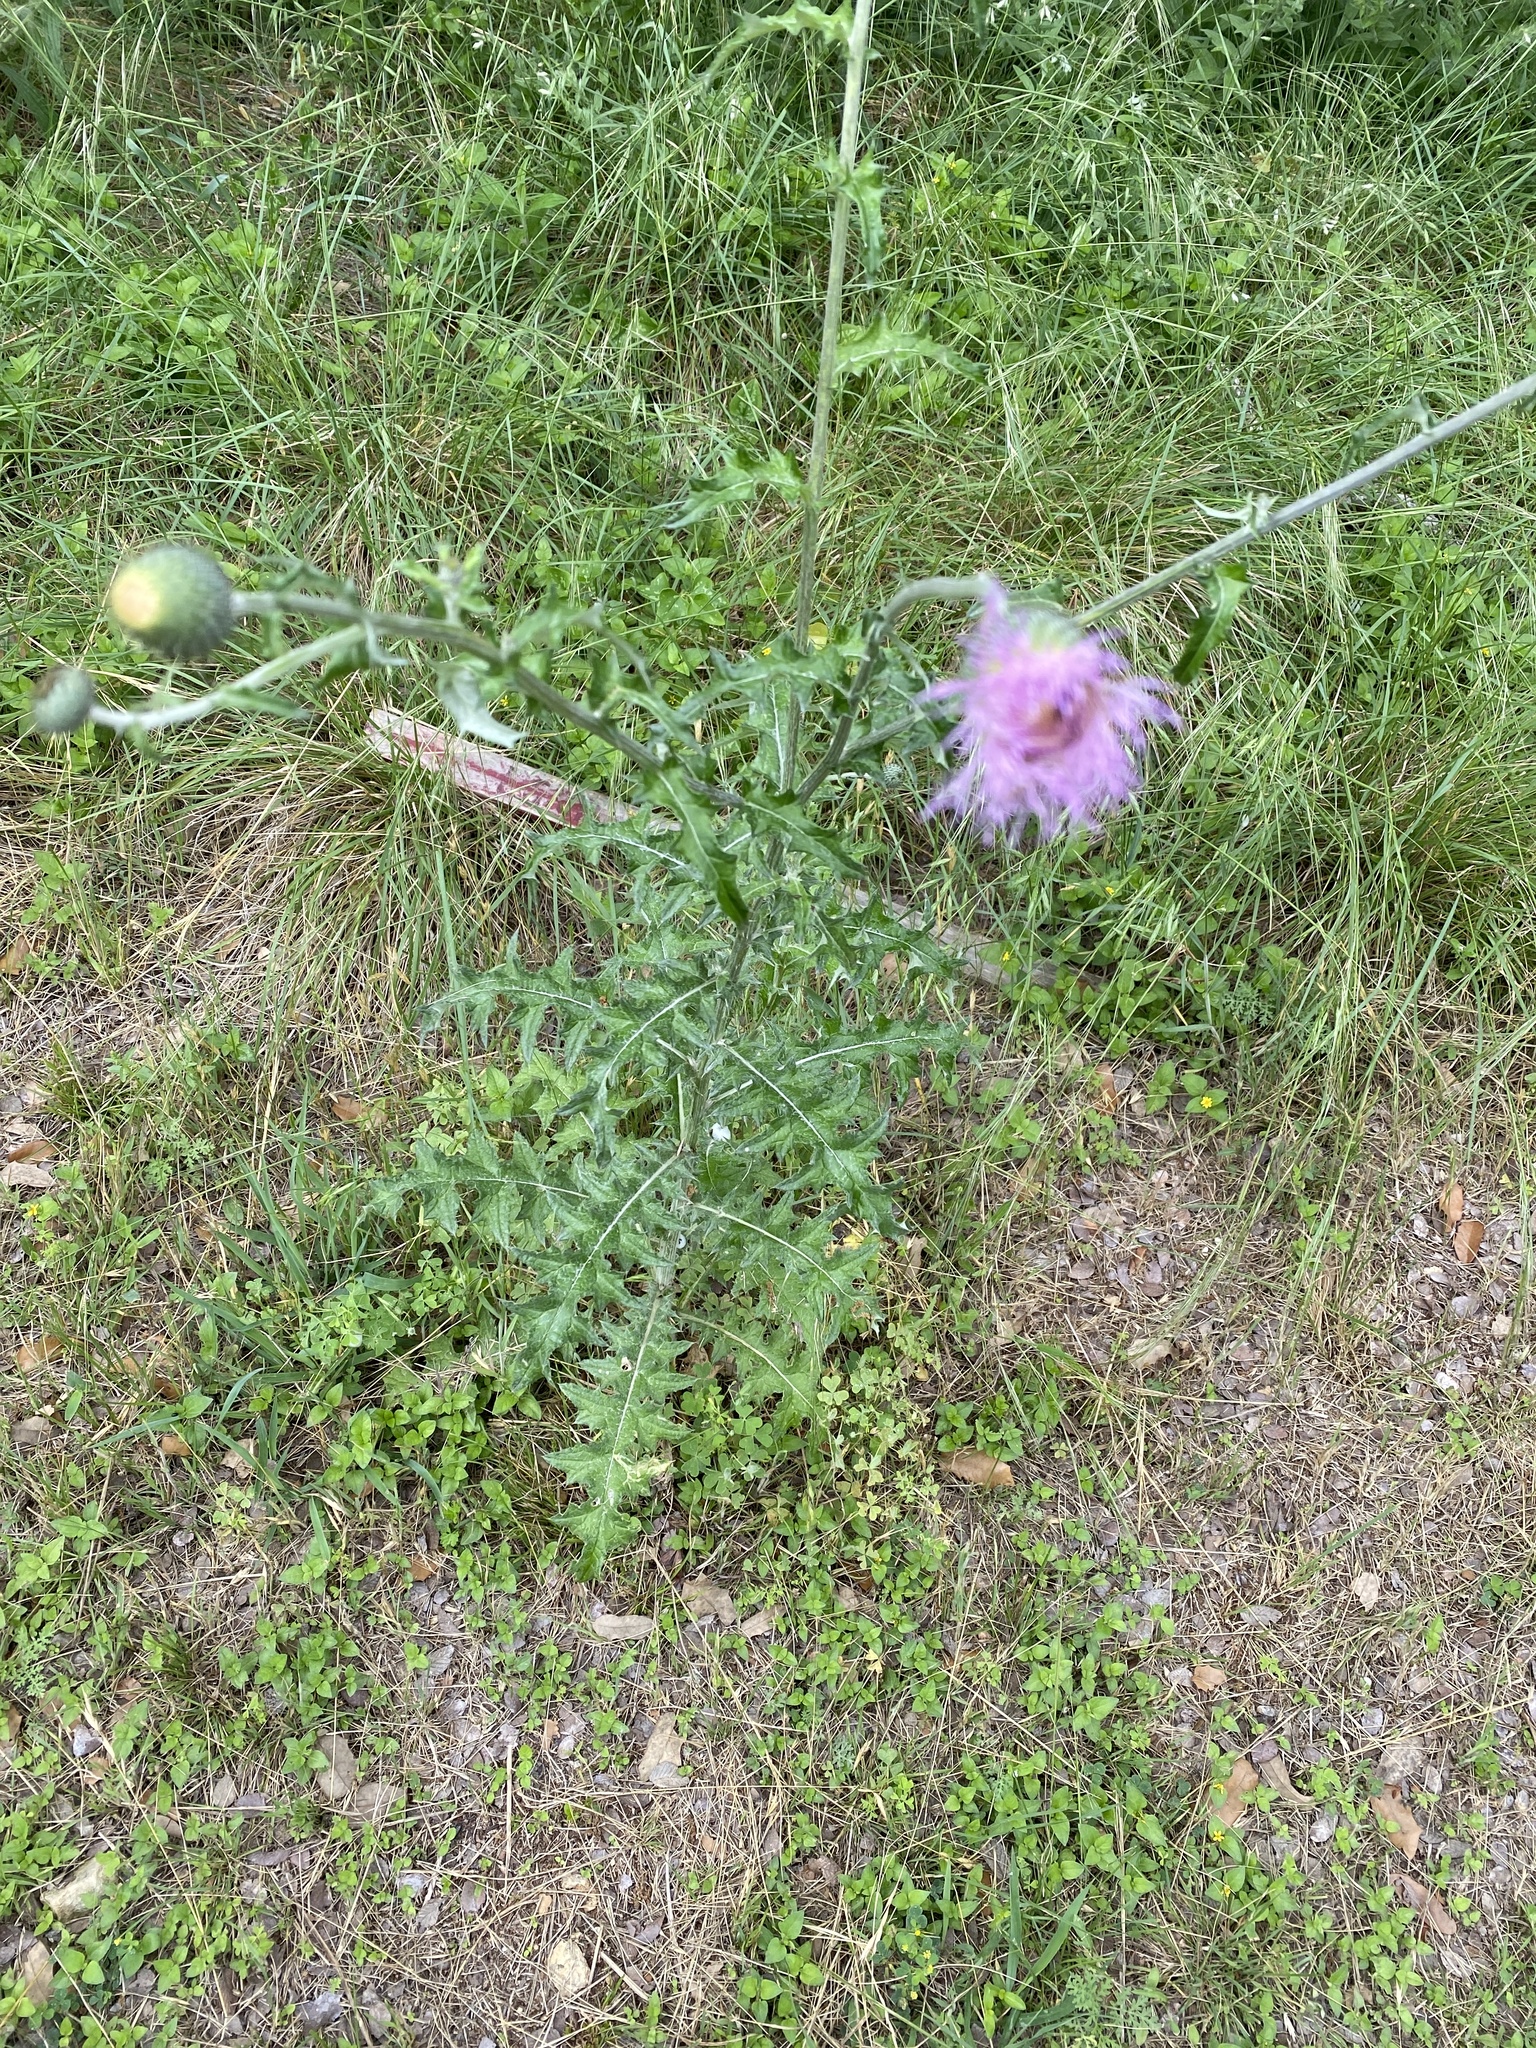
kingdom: Plantae
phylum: Tracheophyta
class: Magnoliopsida
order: Asterales
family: Asteraceae
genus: Cirsium
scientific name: Cirsium texanum
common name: Texas purple thistle
